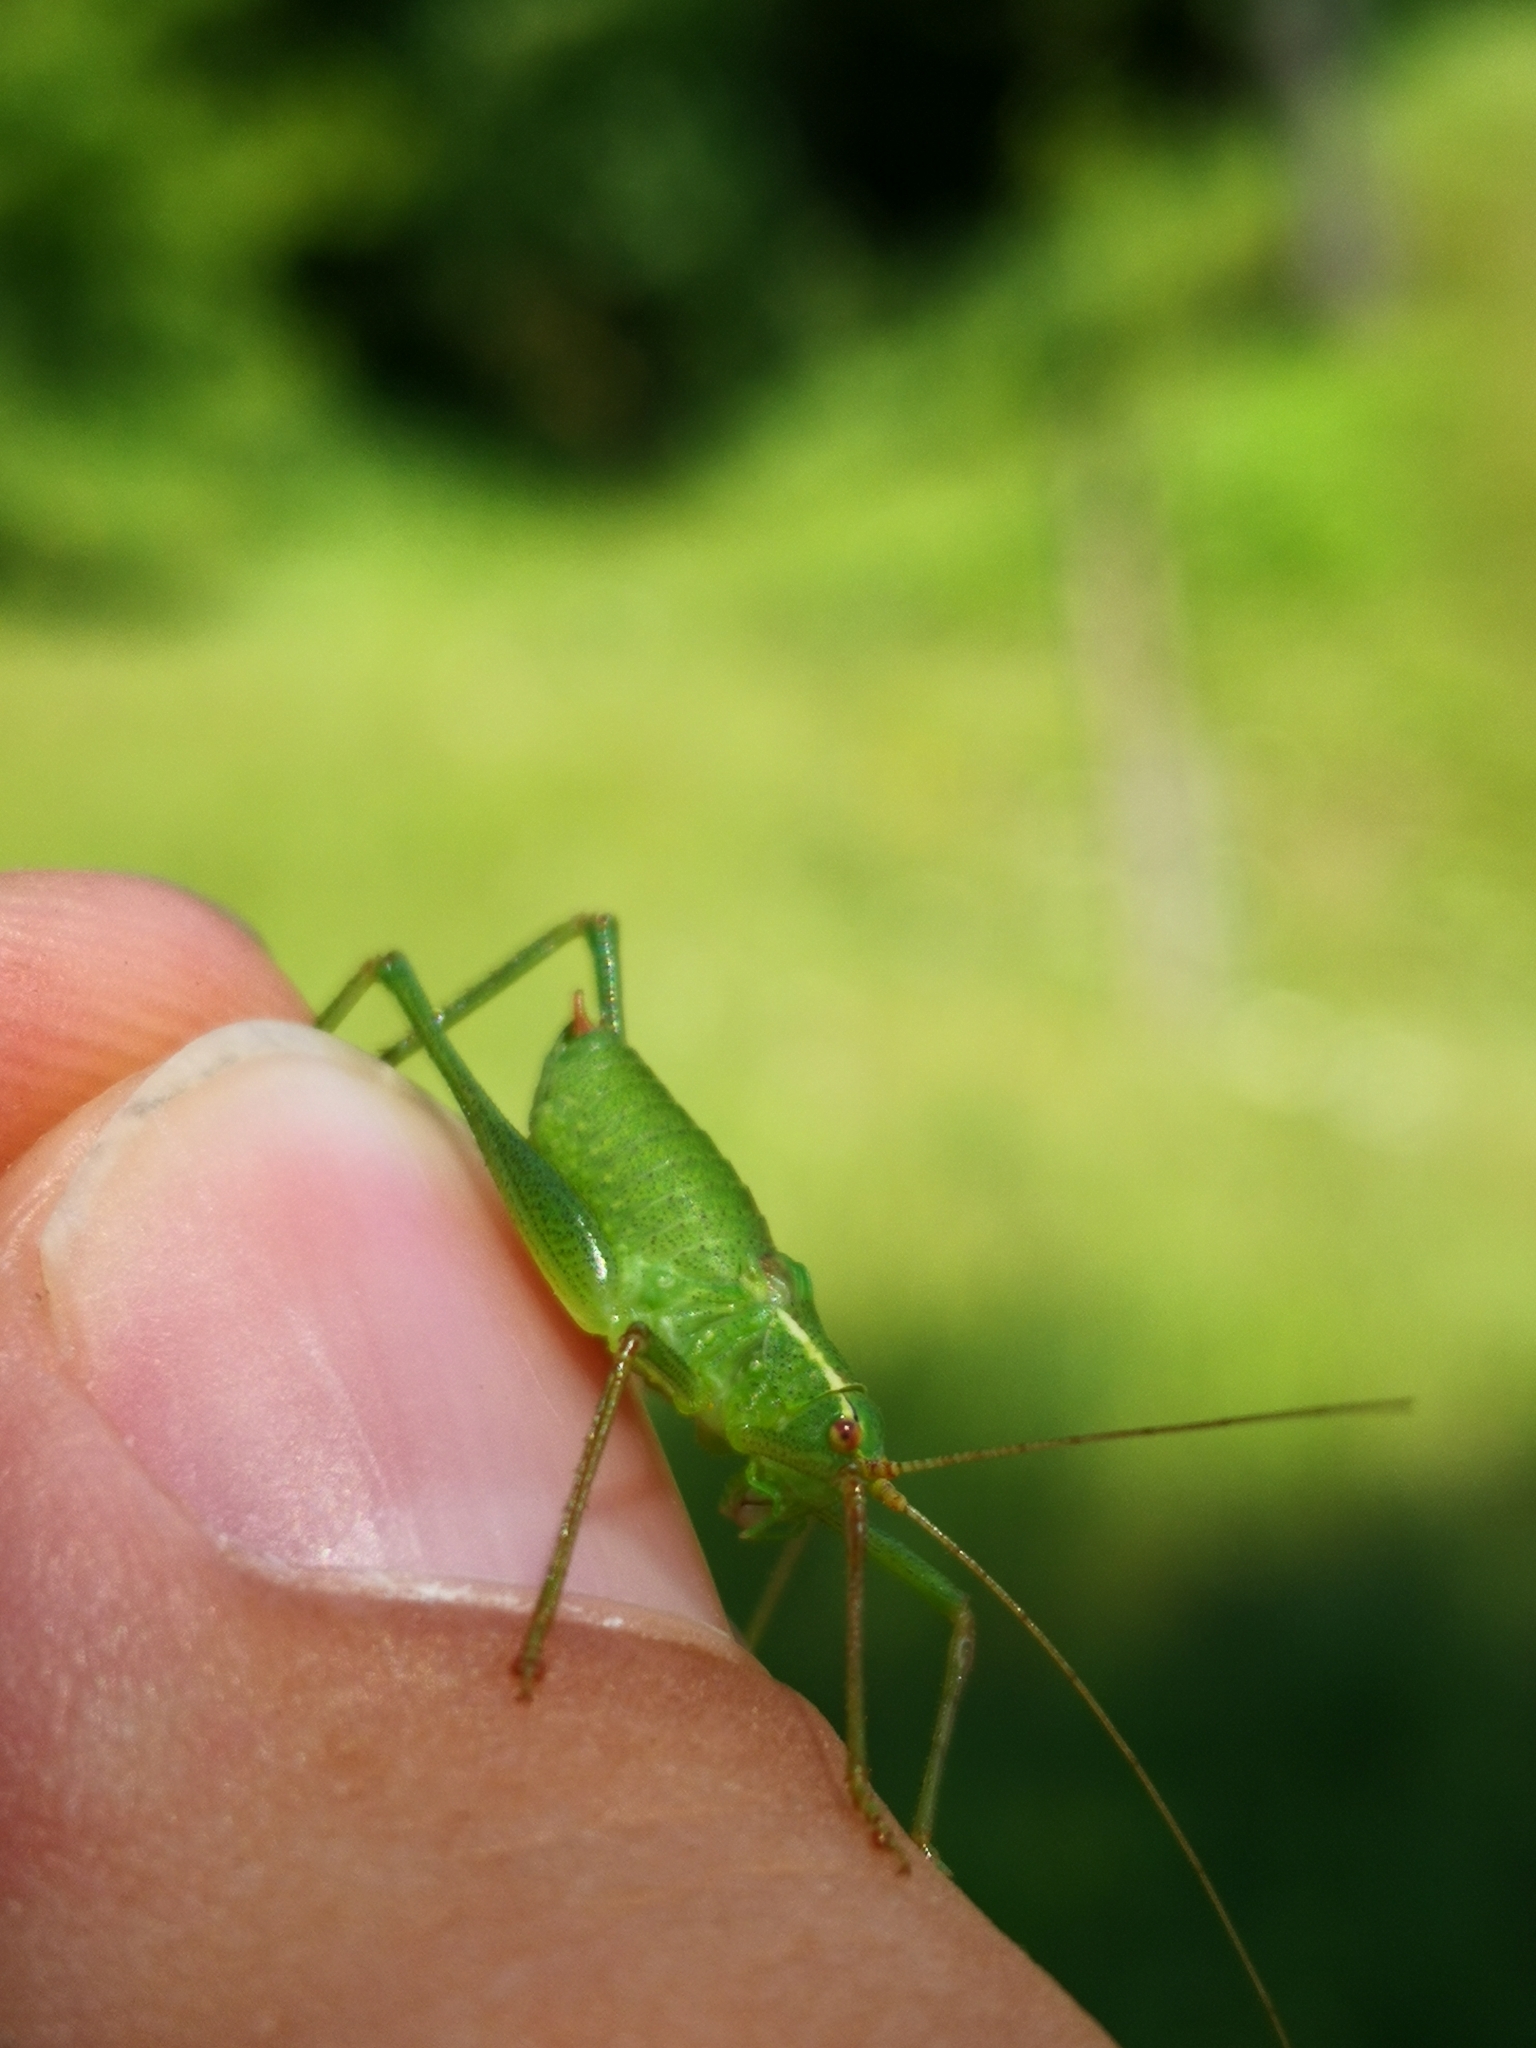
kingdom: Animalia
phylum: Arthropoda
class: Insecta
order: Orthoptera
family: Tettigoniidae
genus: Leptophyes
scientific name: Leptophyes punctatissima
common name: Speckled bush-cricket
